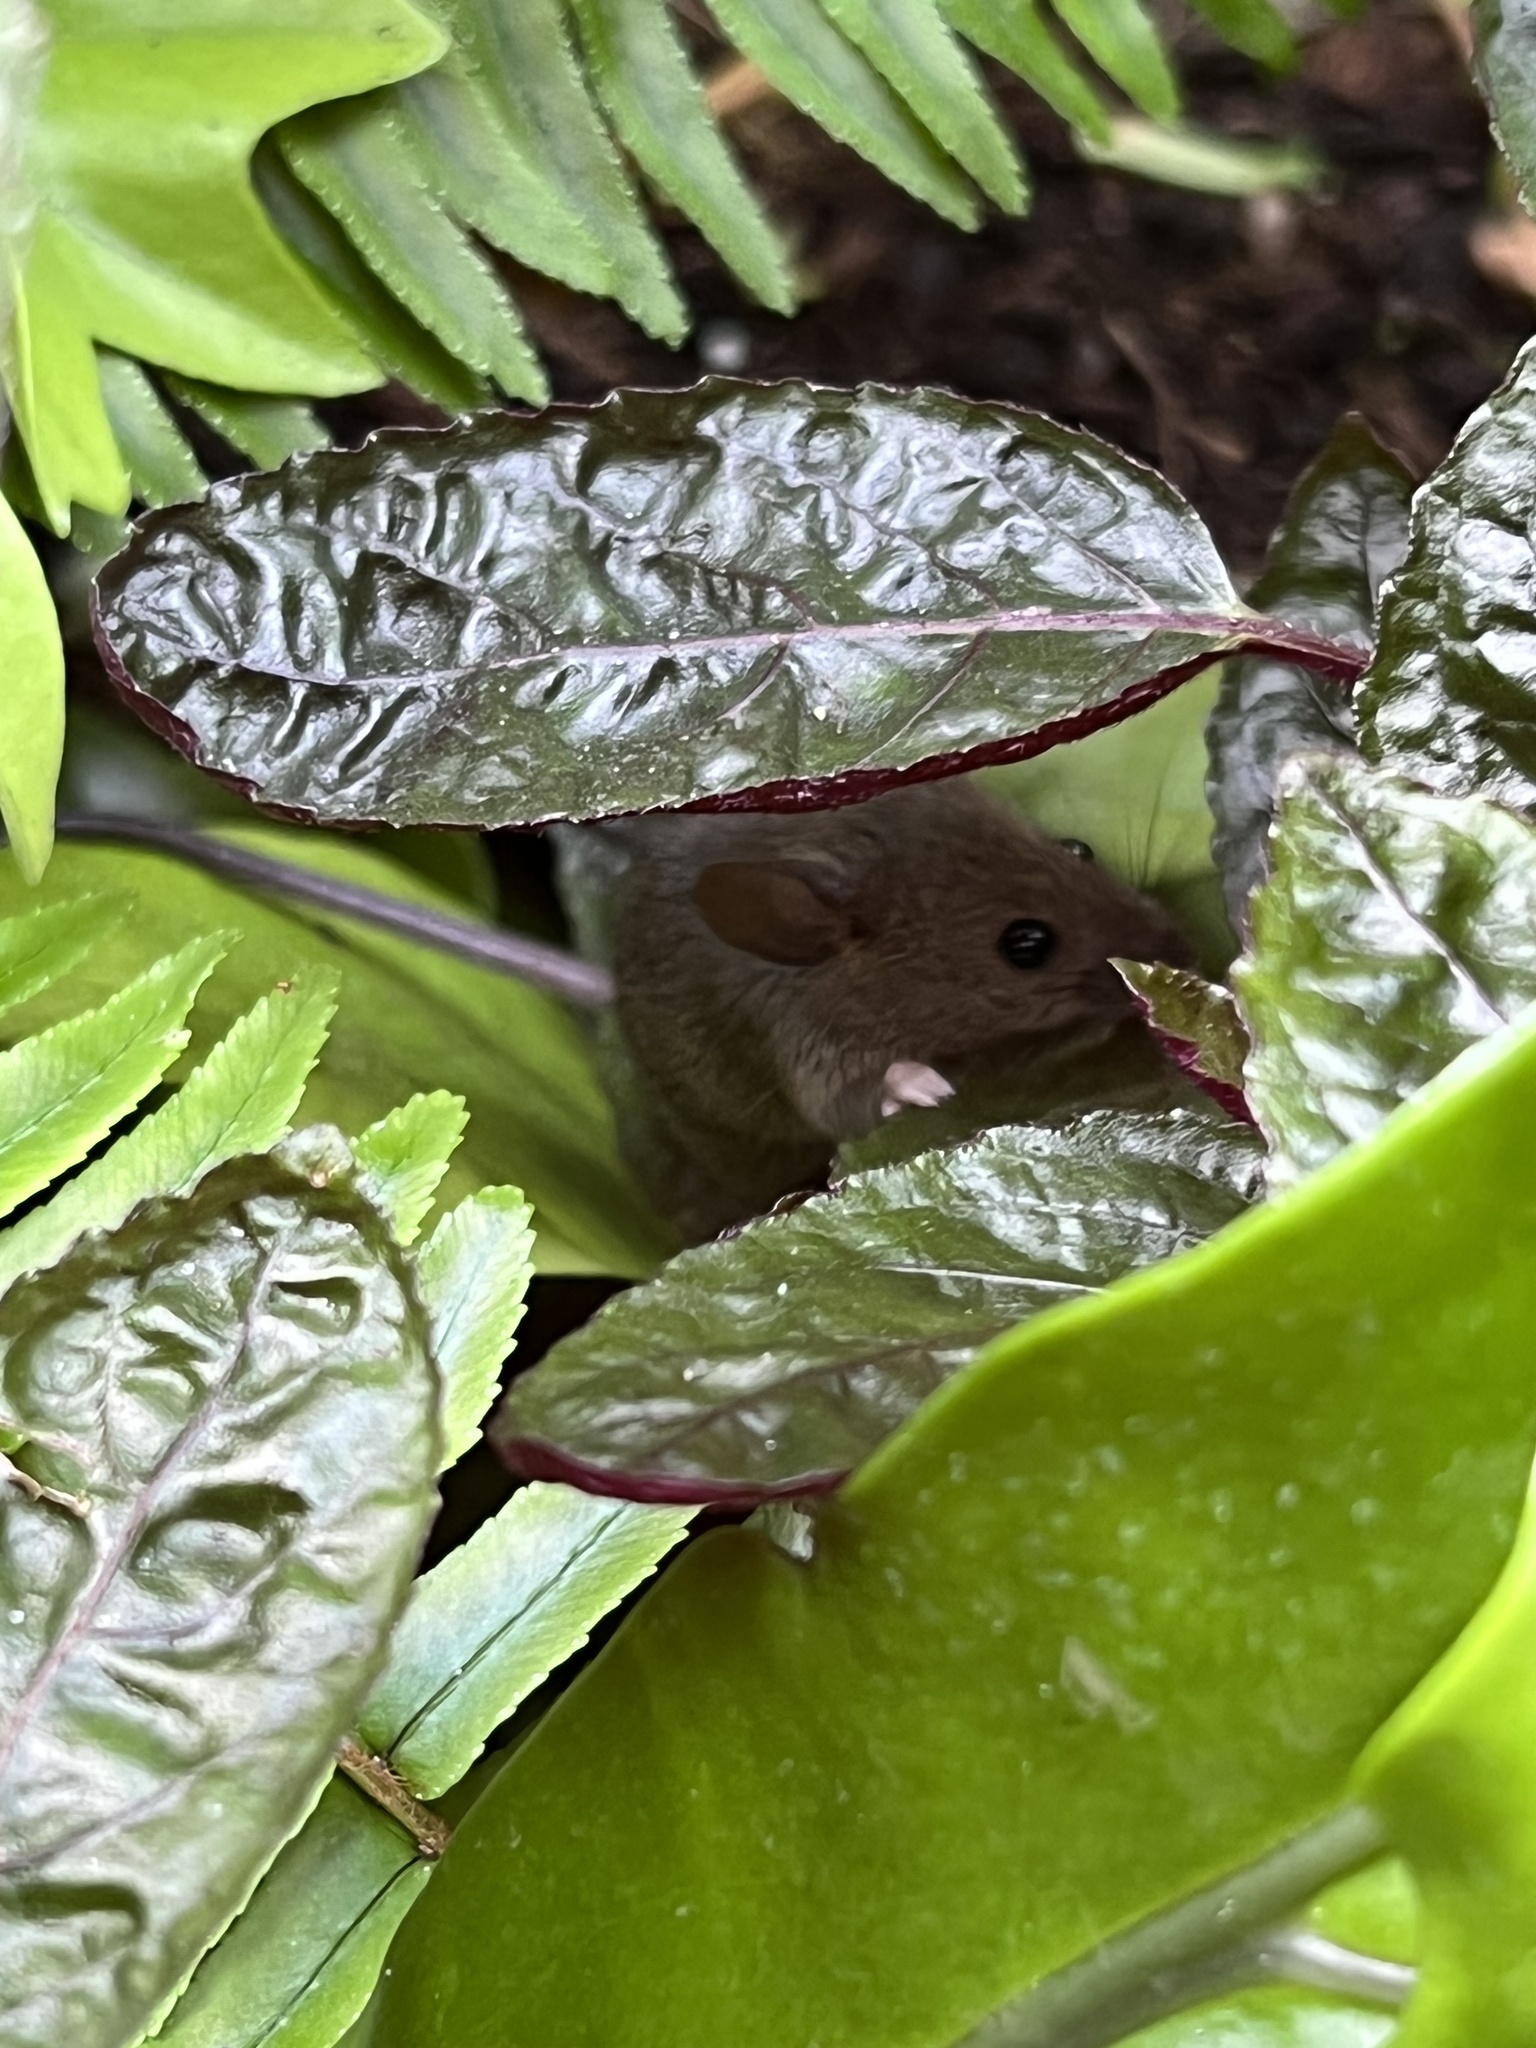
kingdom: Animalia
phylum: Chordata
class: Mammalia
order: Rodentia
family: Muridae
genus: Mus
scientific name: Mus musculus
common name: House mouse
